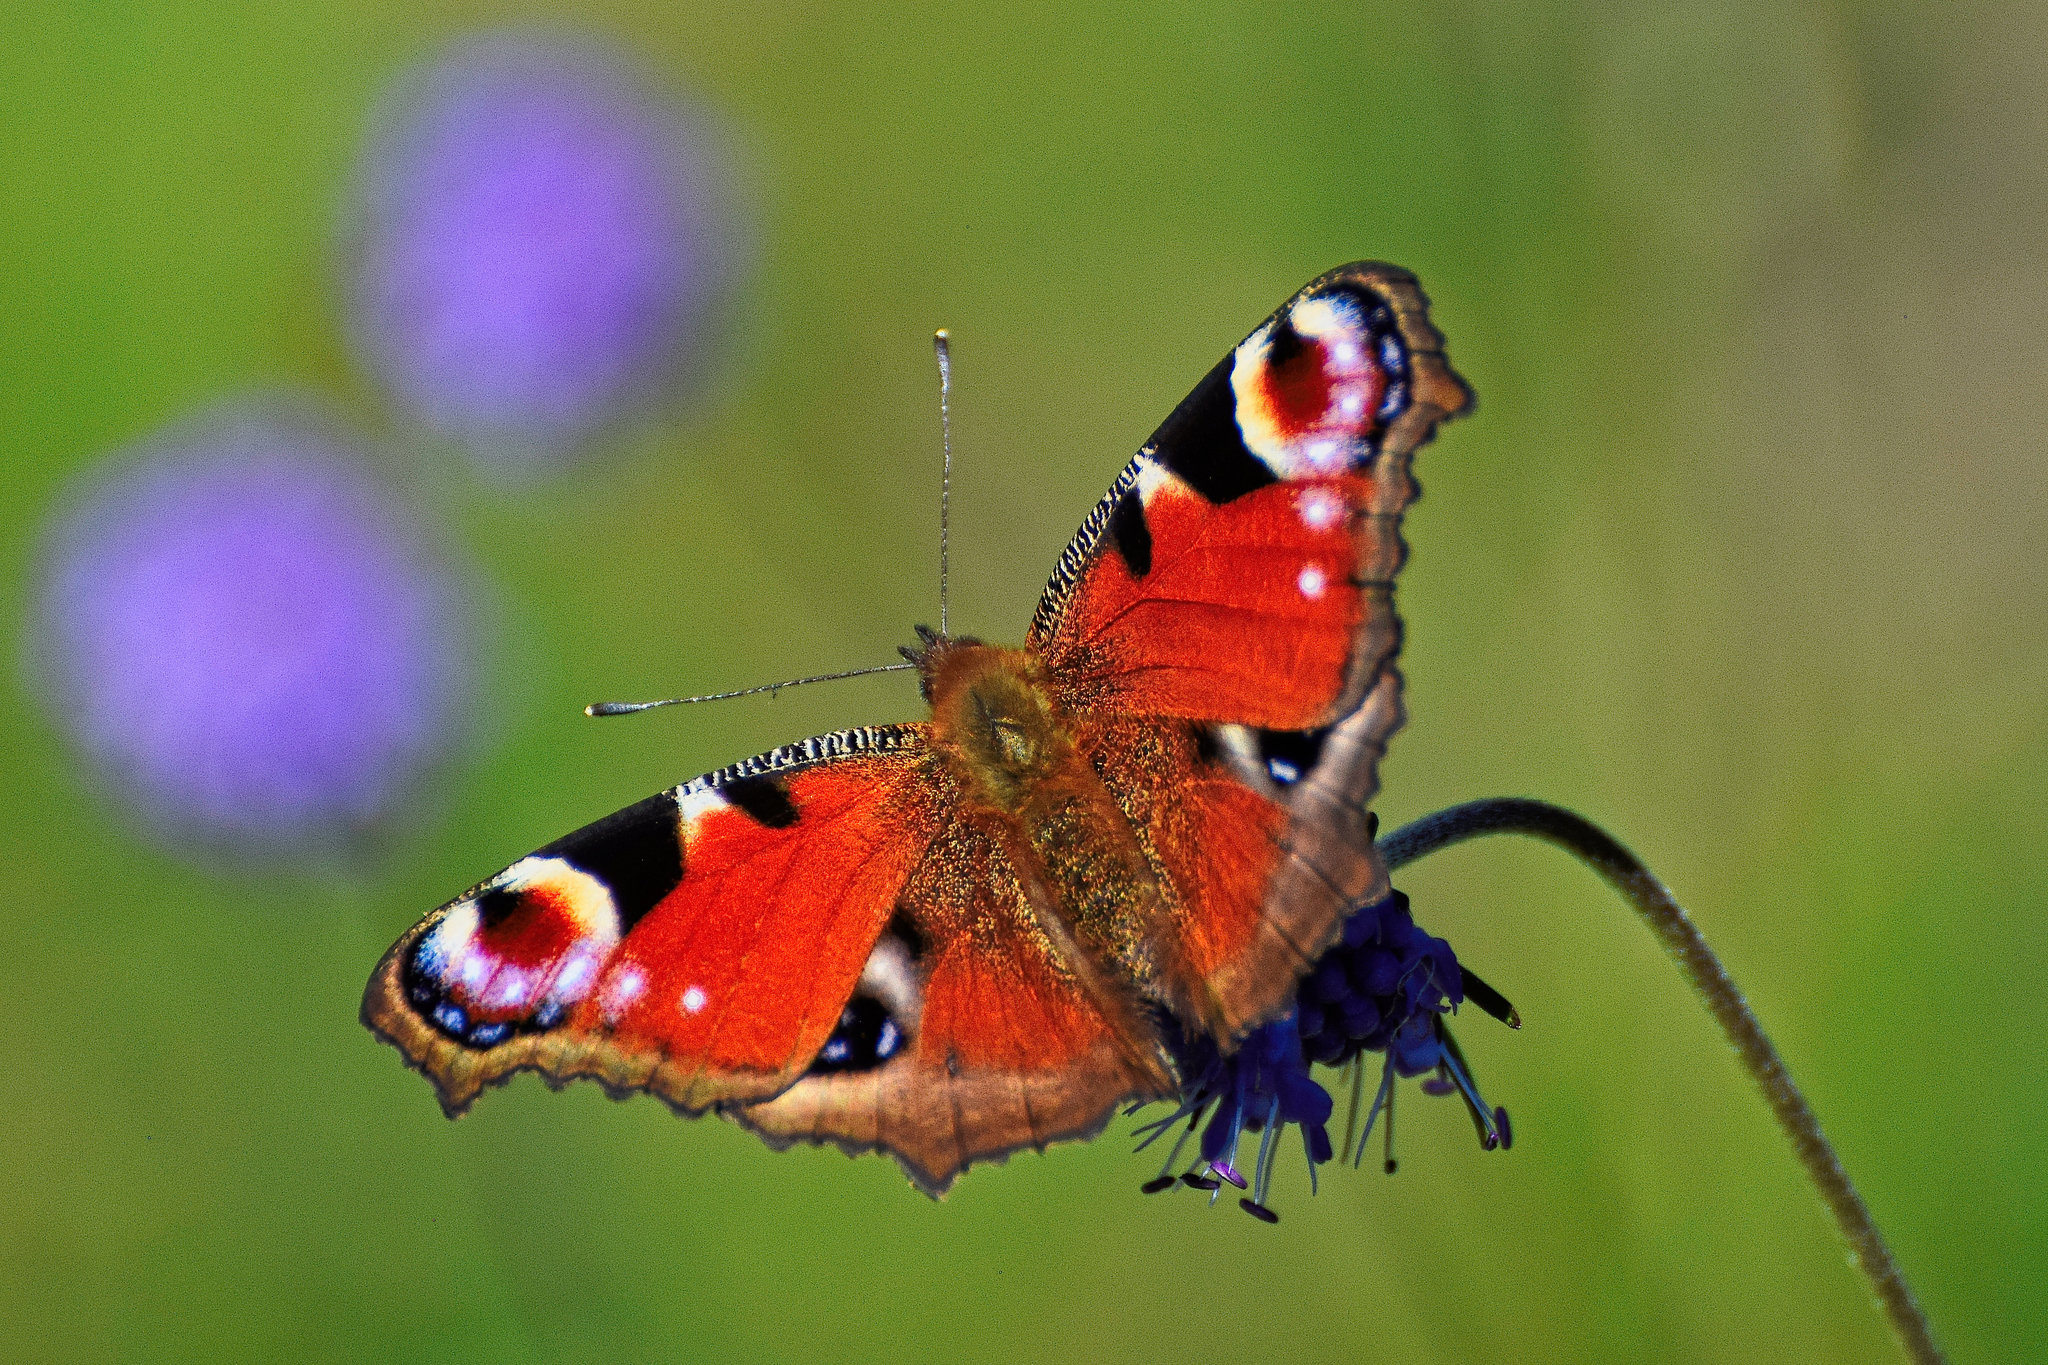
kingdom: Animalia
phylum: Arthropoda
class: Insecta
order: Lepidoptera
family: Nymphalidae
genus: Aglais
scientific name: Aglais io
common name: Peacock
